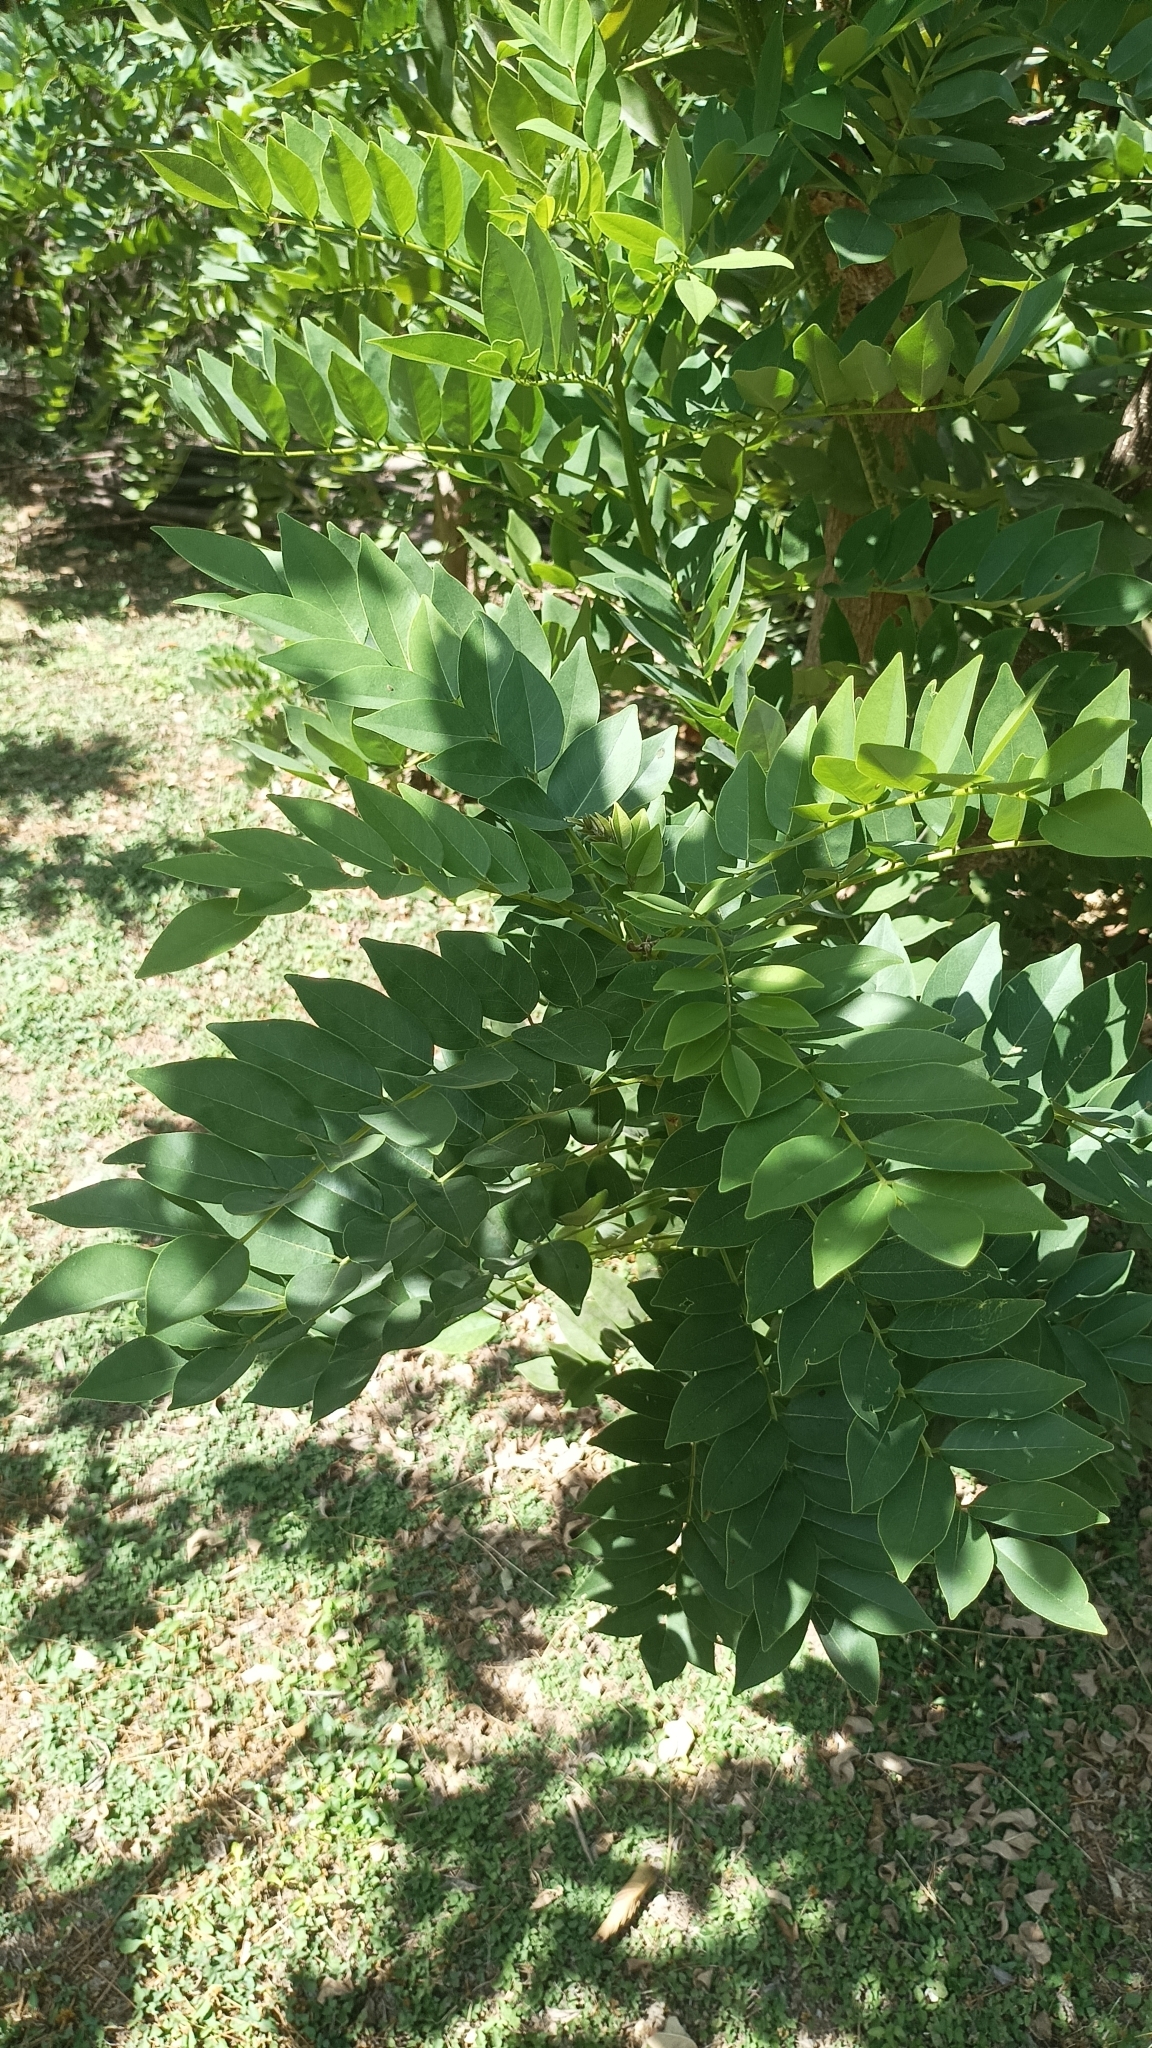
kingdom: Plantae
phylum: Tracheophyta
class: Magnoliopsida
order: Fabales
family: Fabaceae
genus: Gliricidia
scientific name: Gliricidia sepium
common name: Quickstick
